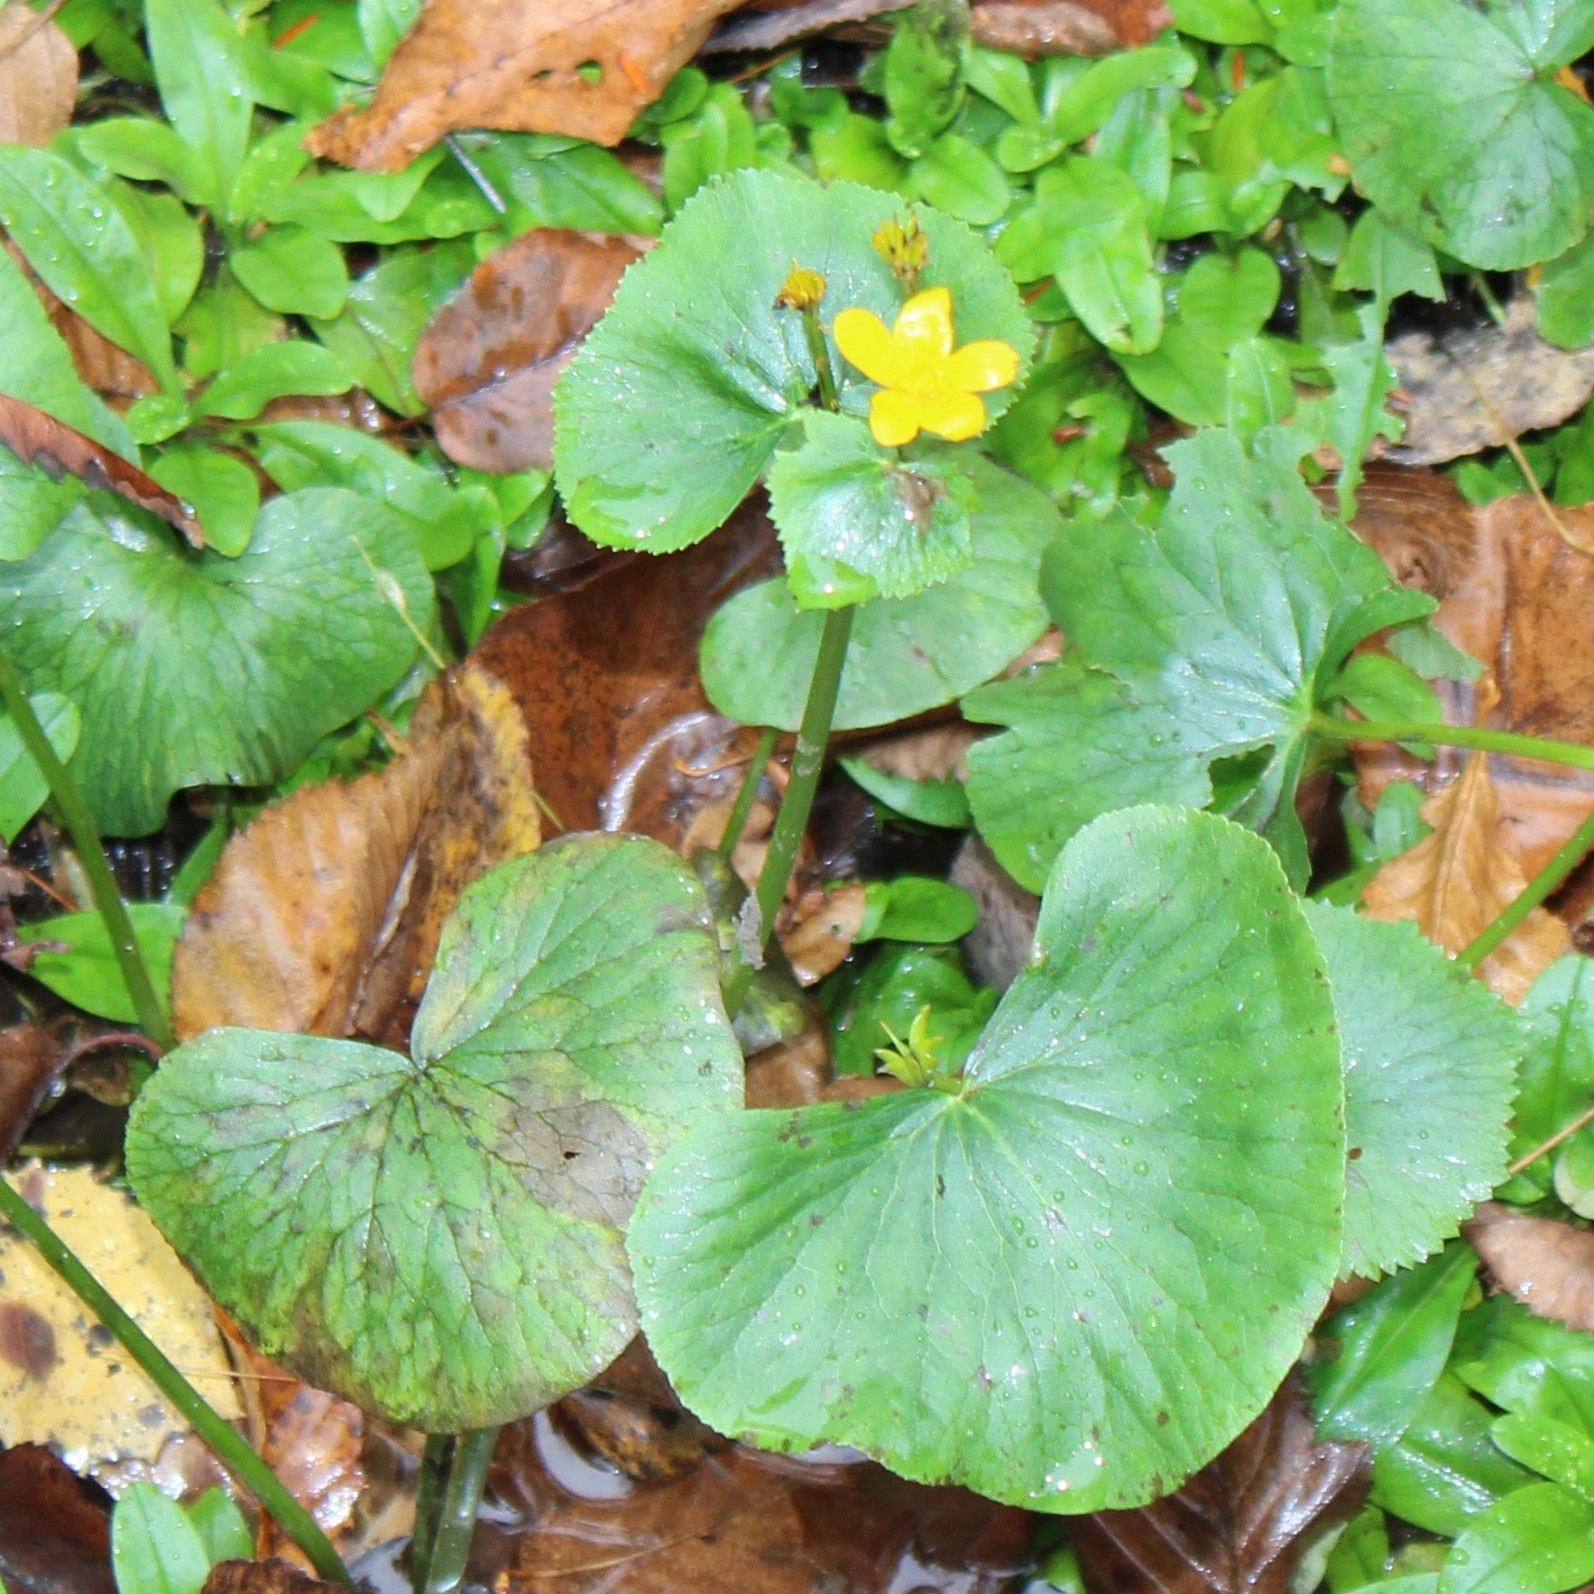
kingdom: Plantae
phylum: Tracheophyta
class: Magnoliopsida
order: Ranunculales
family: Ranunculaceae
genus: Caltha
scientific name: Caltha palustris
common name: Marsh marigold
